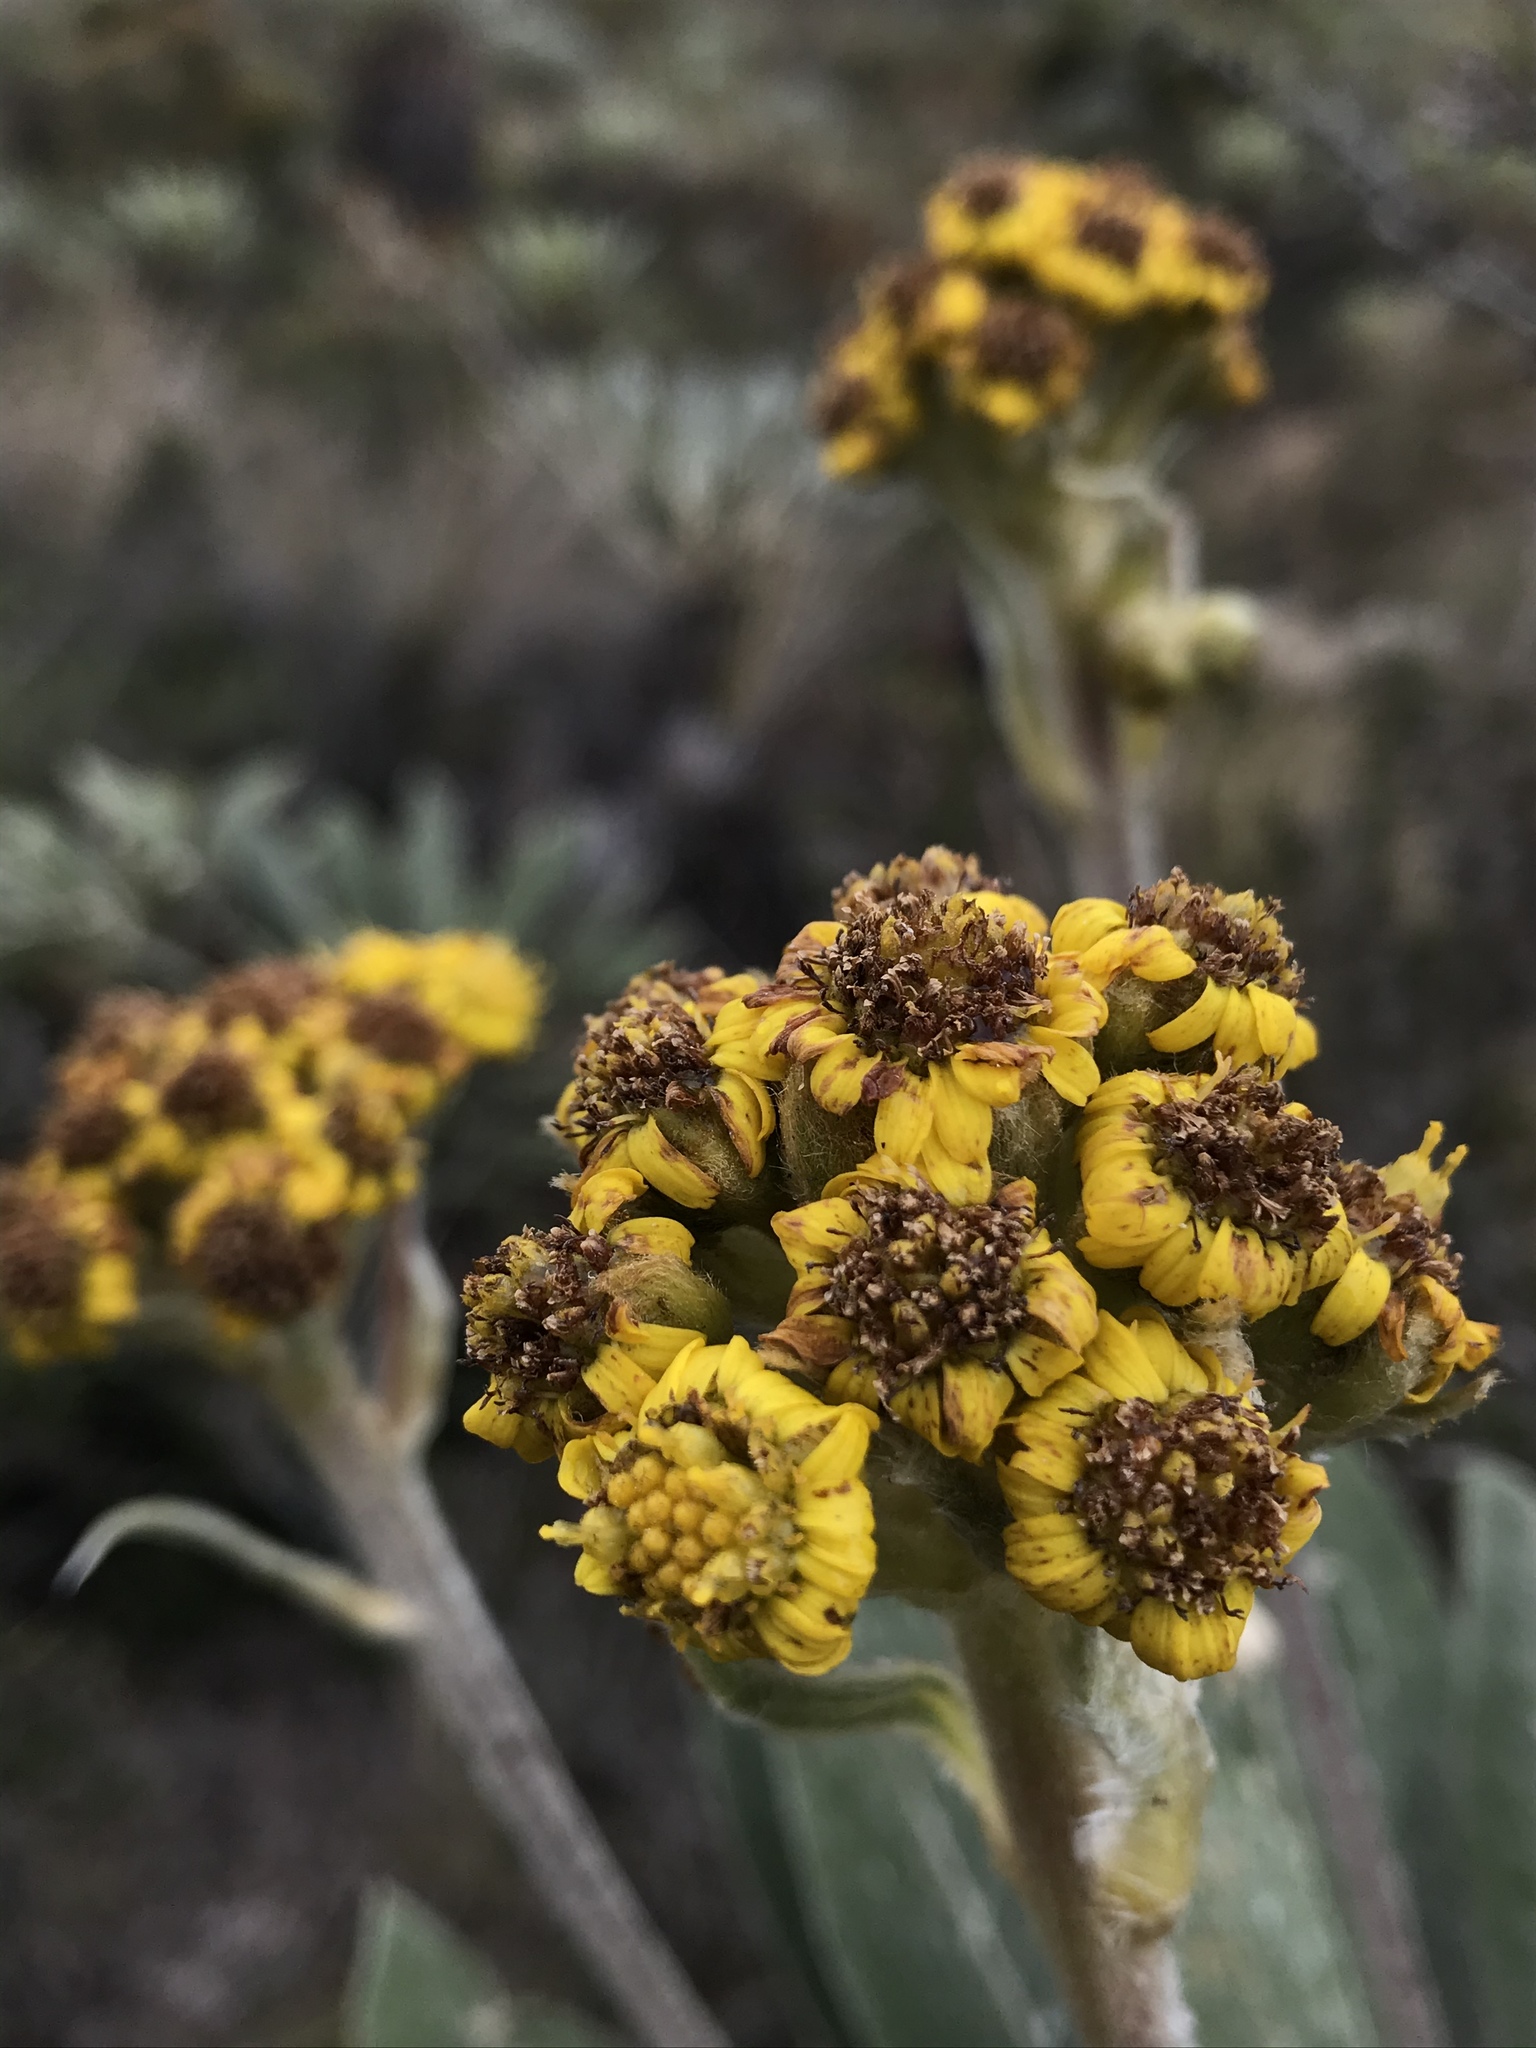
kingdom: Plantae
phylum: Tracheophyta
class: Magnoliopsida
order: Asterales
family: Asteraceae
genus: Espeletia
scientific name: Espeletia corymbosa
